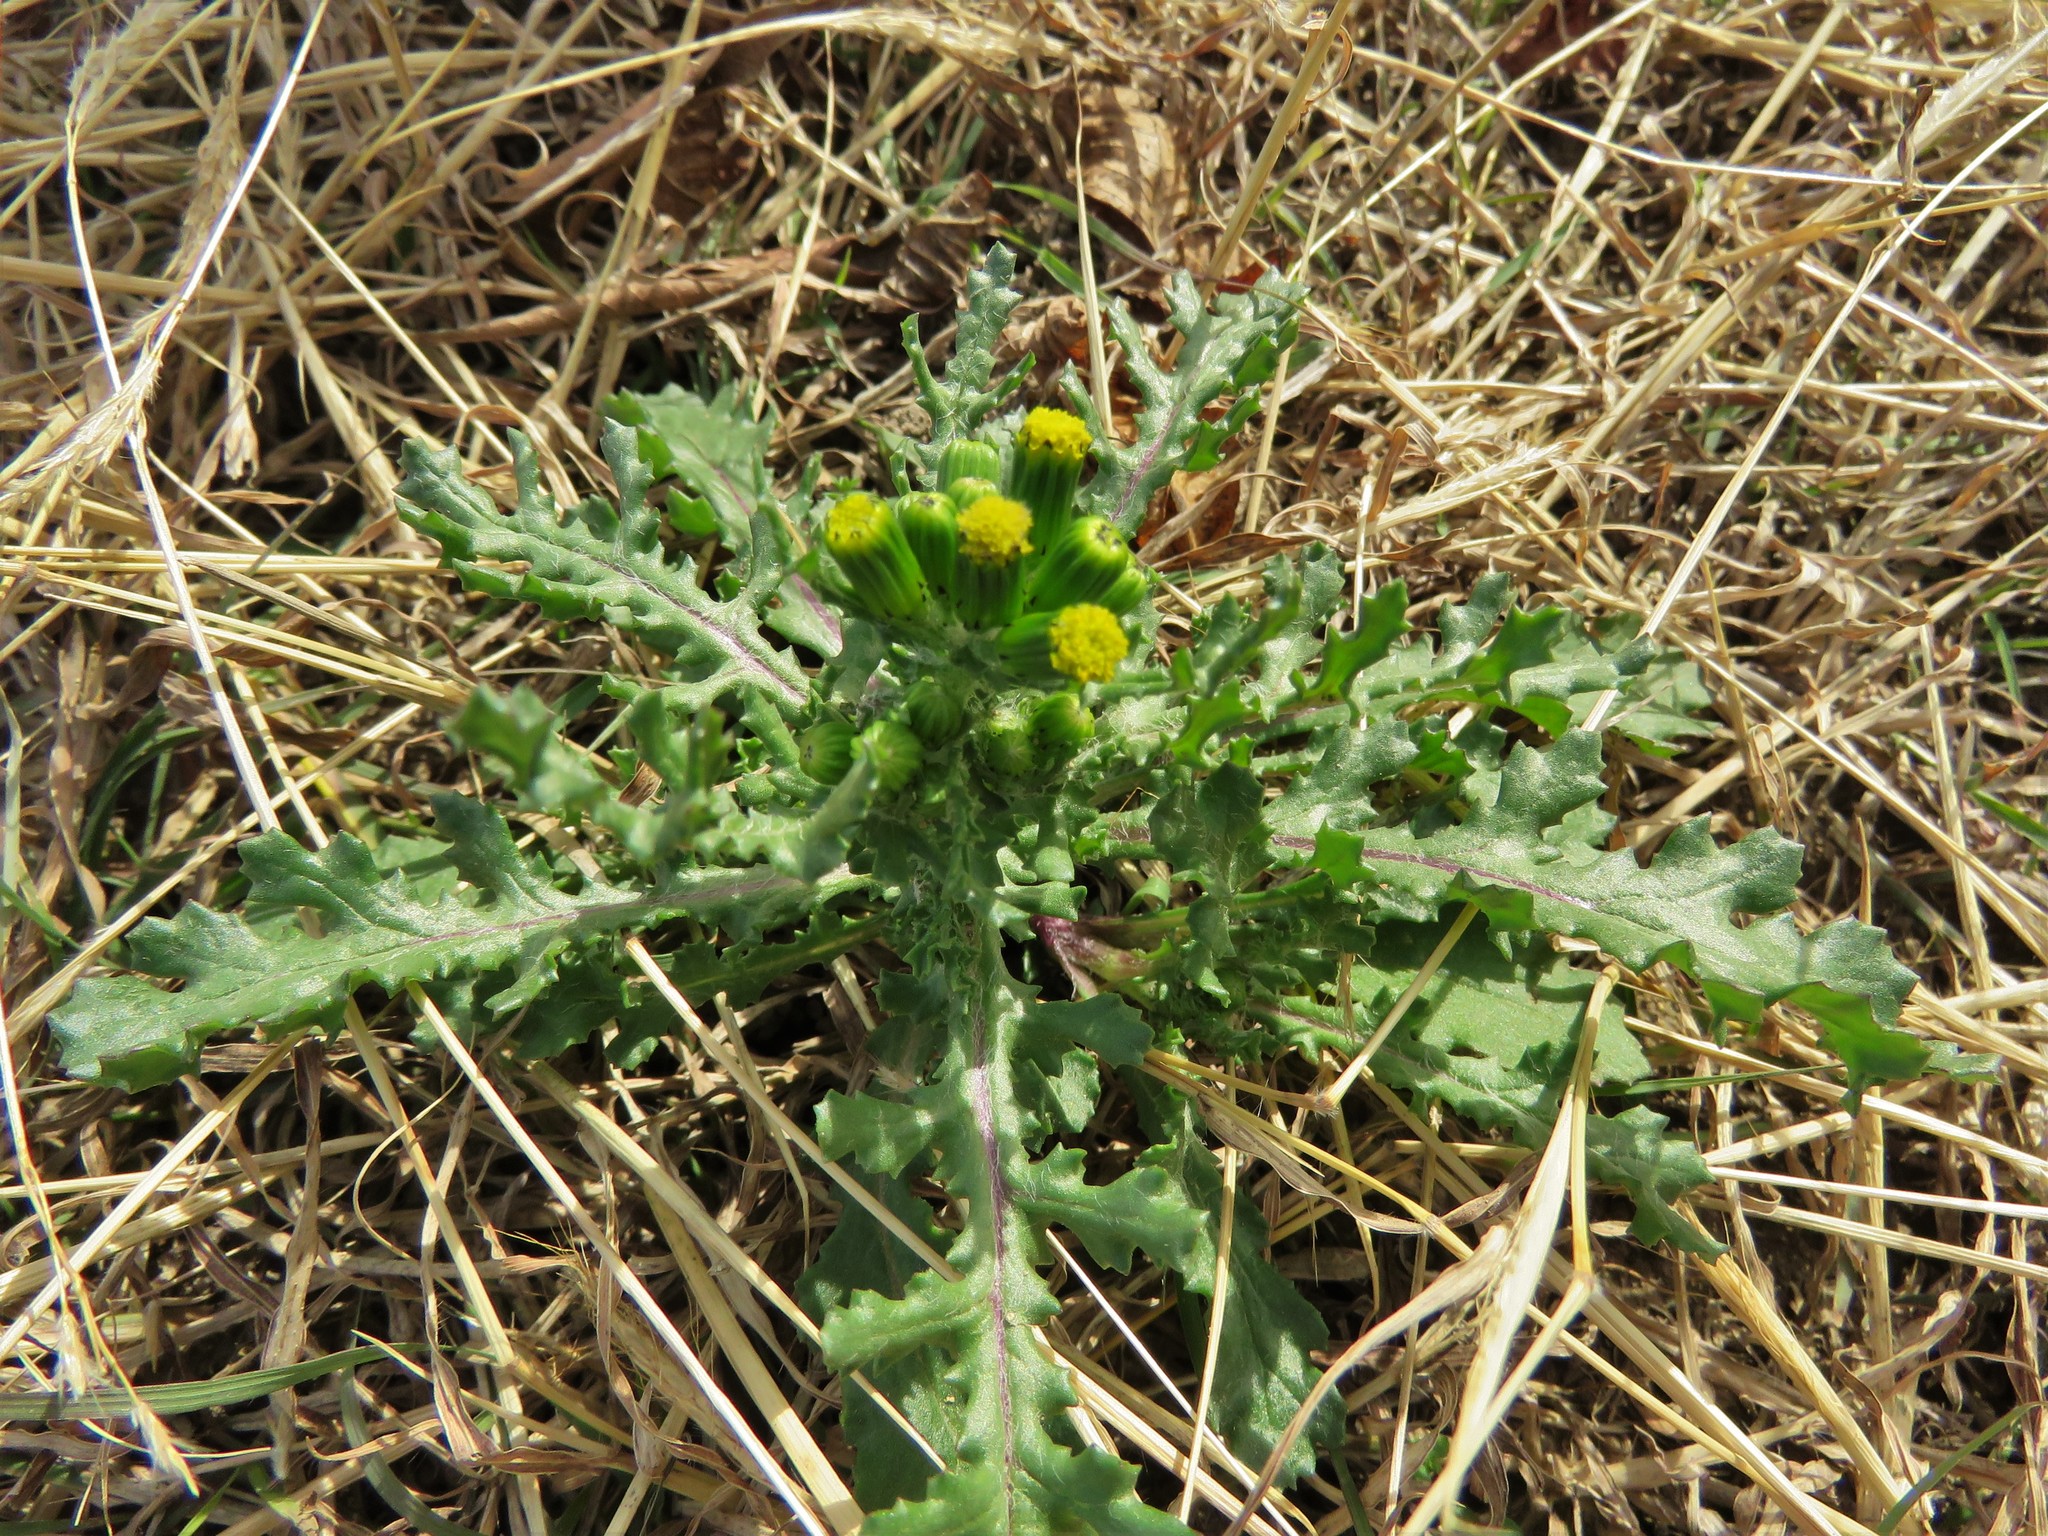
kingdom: Plantae
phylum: Tracheophyta
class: Magnoliopsida
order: Asterales
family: Asteraceae
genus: Senecio
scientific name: Senecio vulgaris
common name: Old-man-in-the-spring
